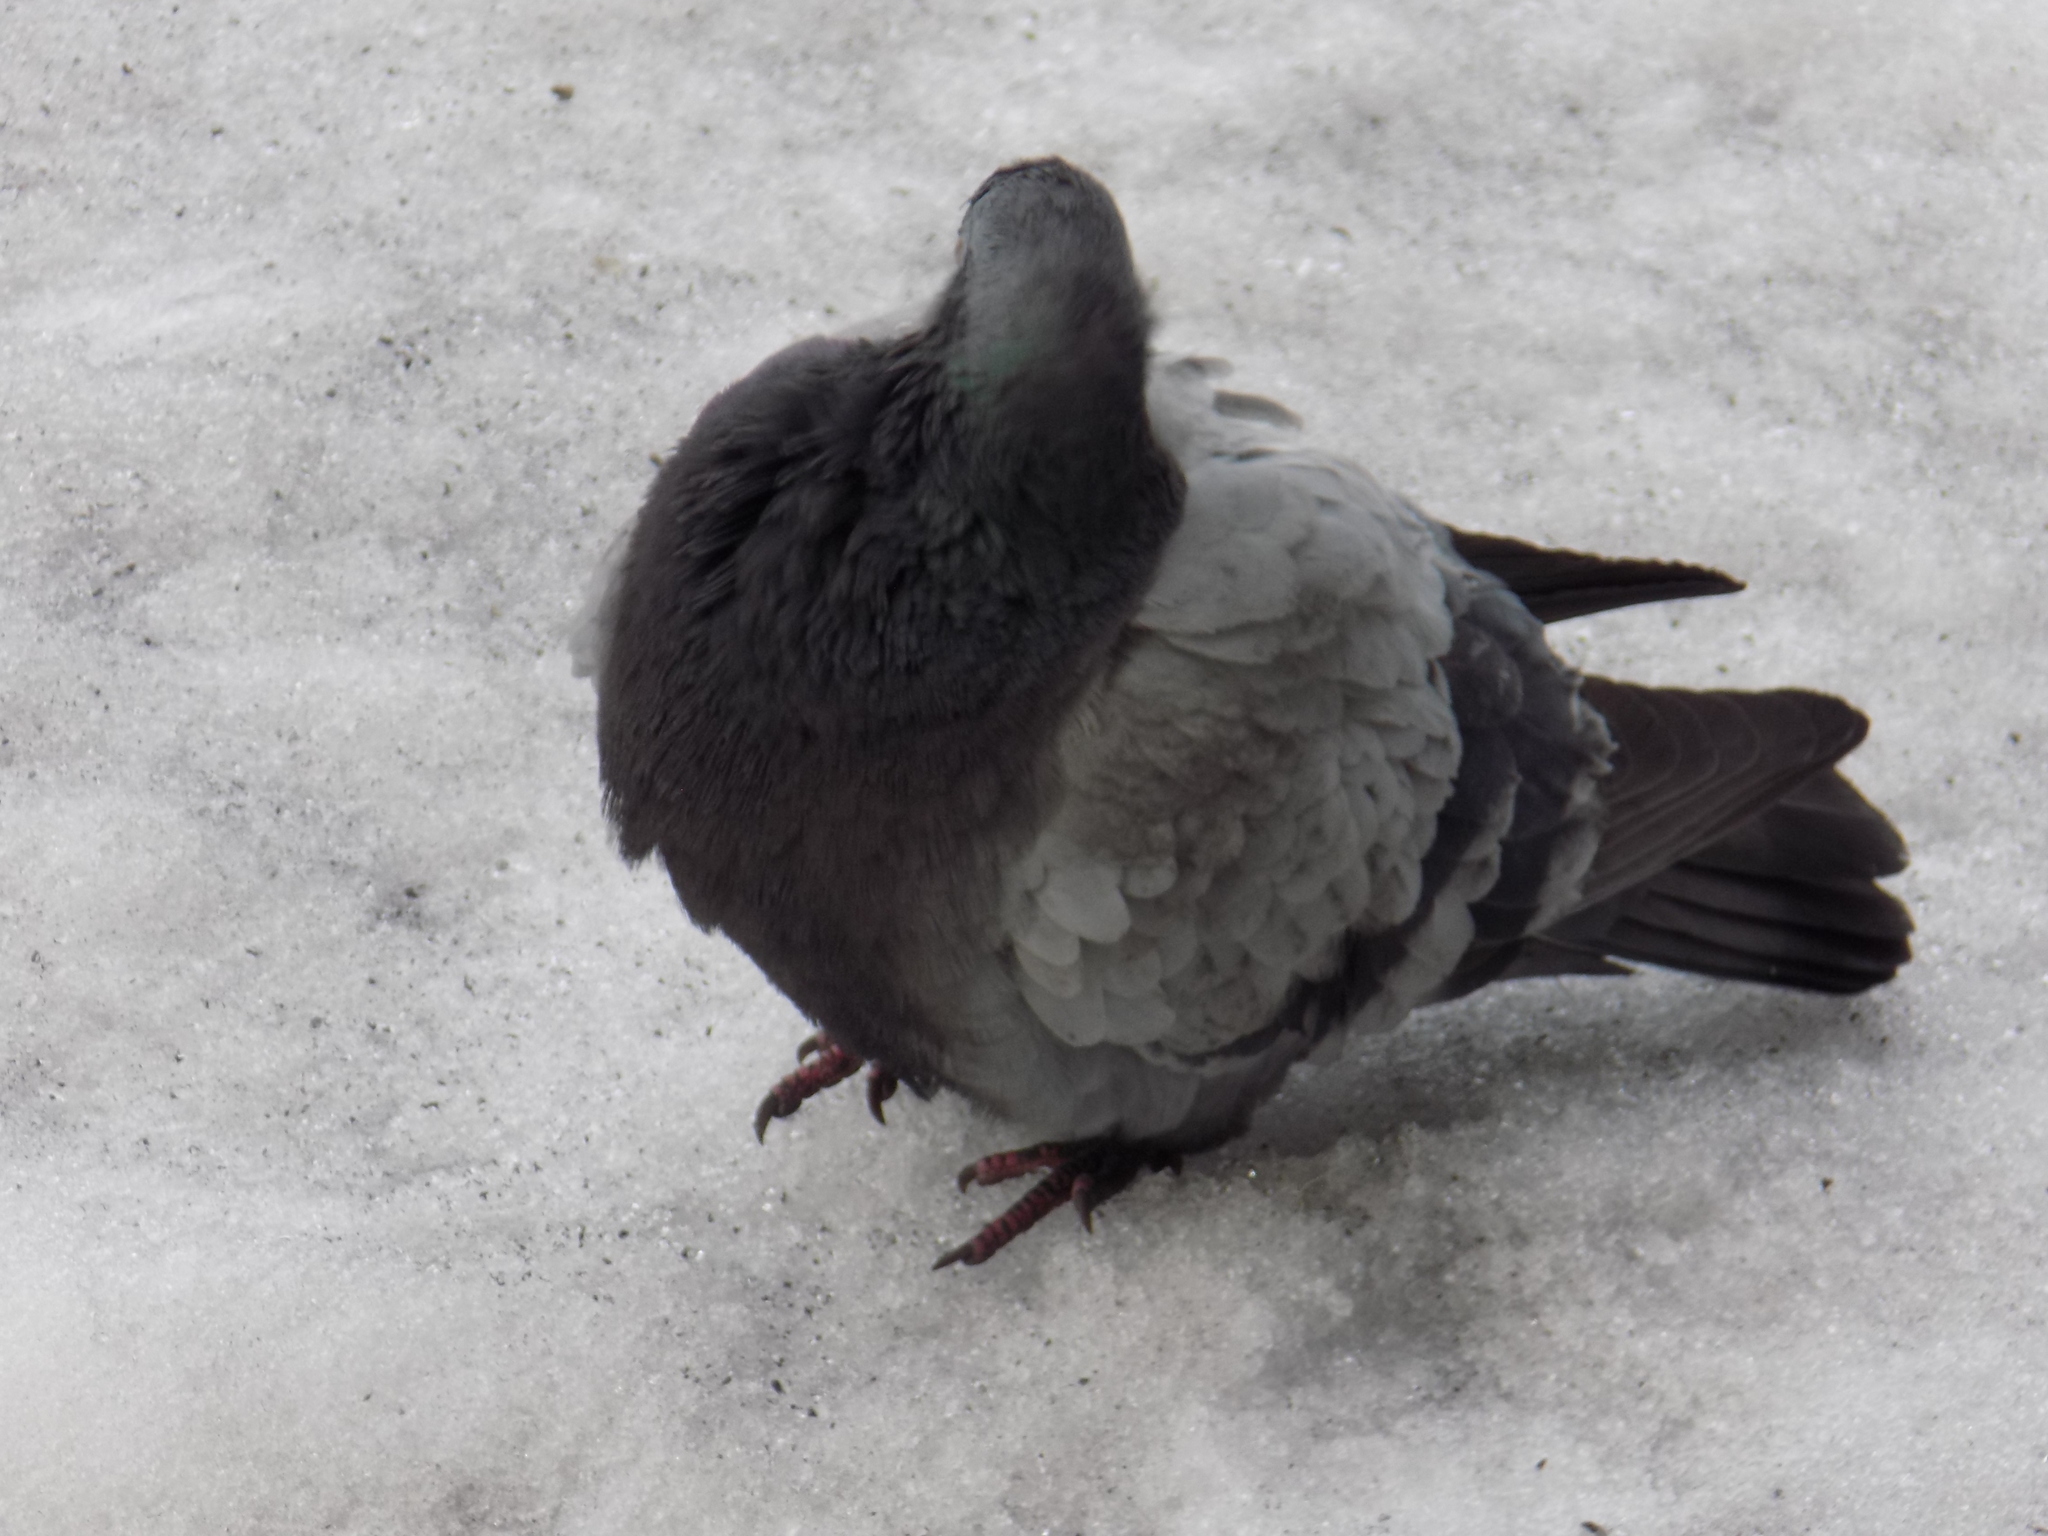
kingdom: Animalia
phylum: Chordata
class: Aves
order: Columbiformes
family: Columbidae
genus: Columba
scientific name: Columba livia
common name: Rock pigeon
